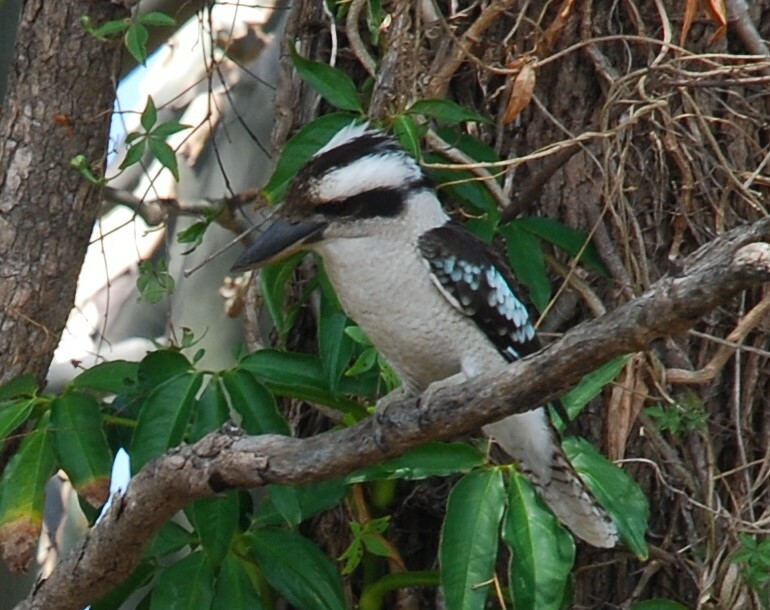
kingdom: Animalia
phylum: Chordata
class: Aves
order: Coraciiformes
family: Alcedinidae
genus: Dacelo
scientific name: Dacelo novaeguineae
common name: Laughing kookaburra
